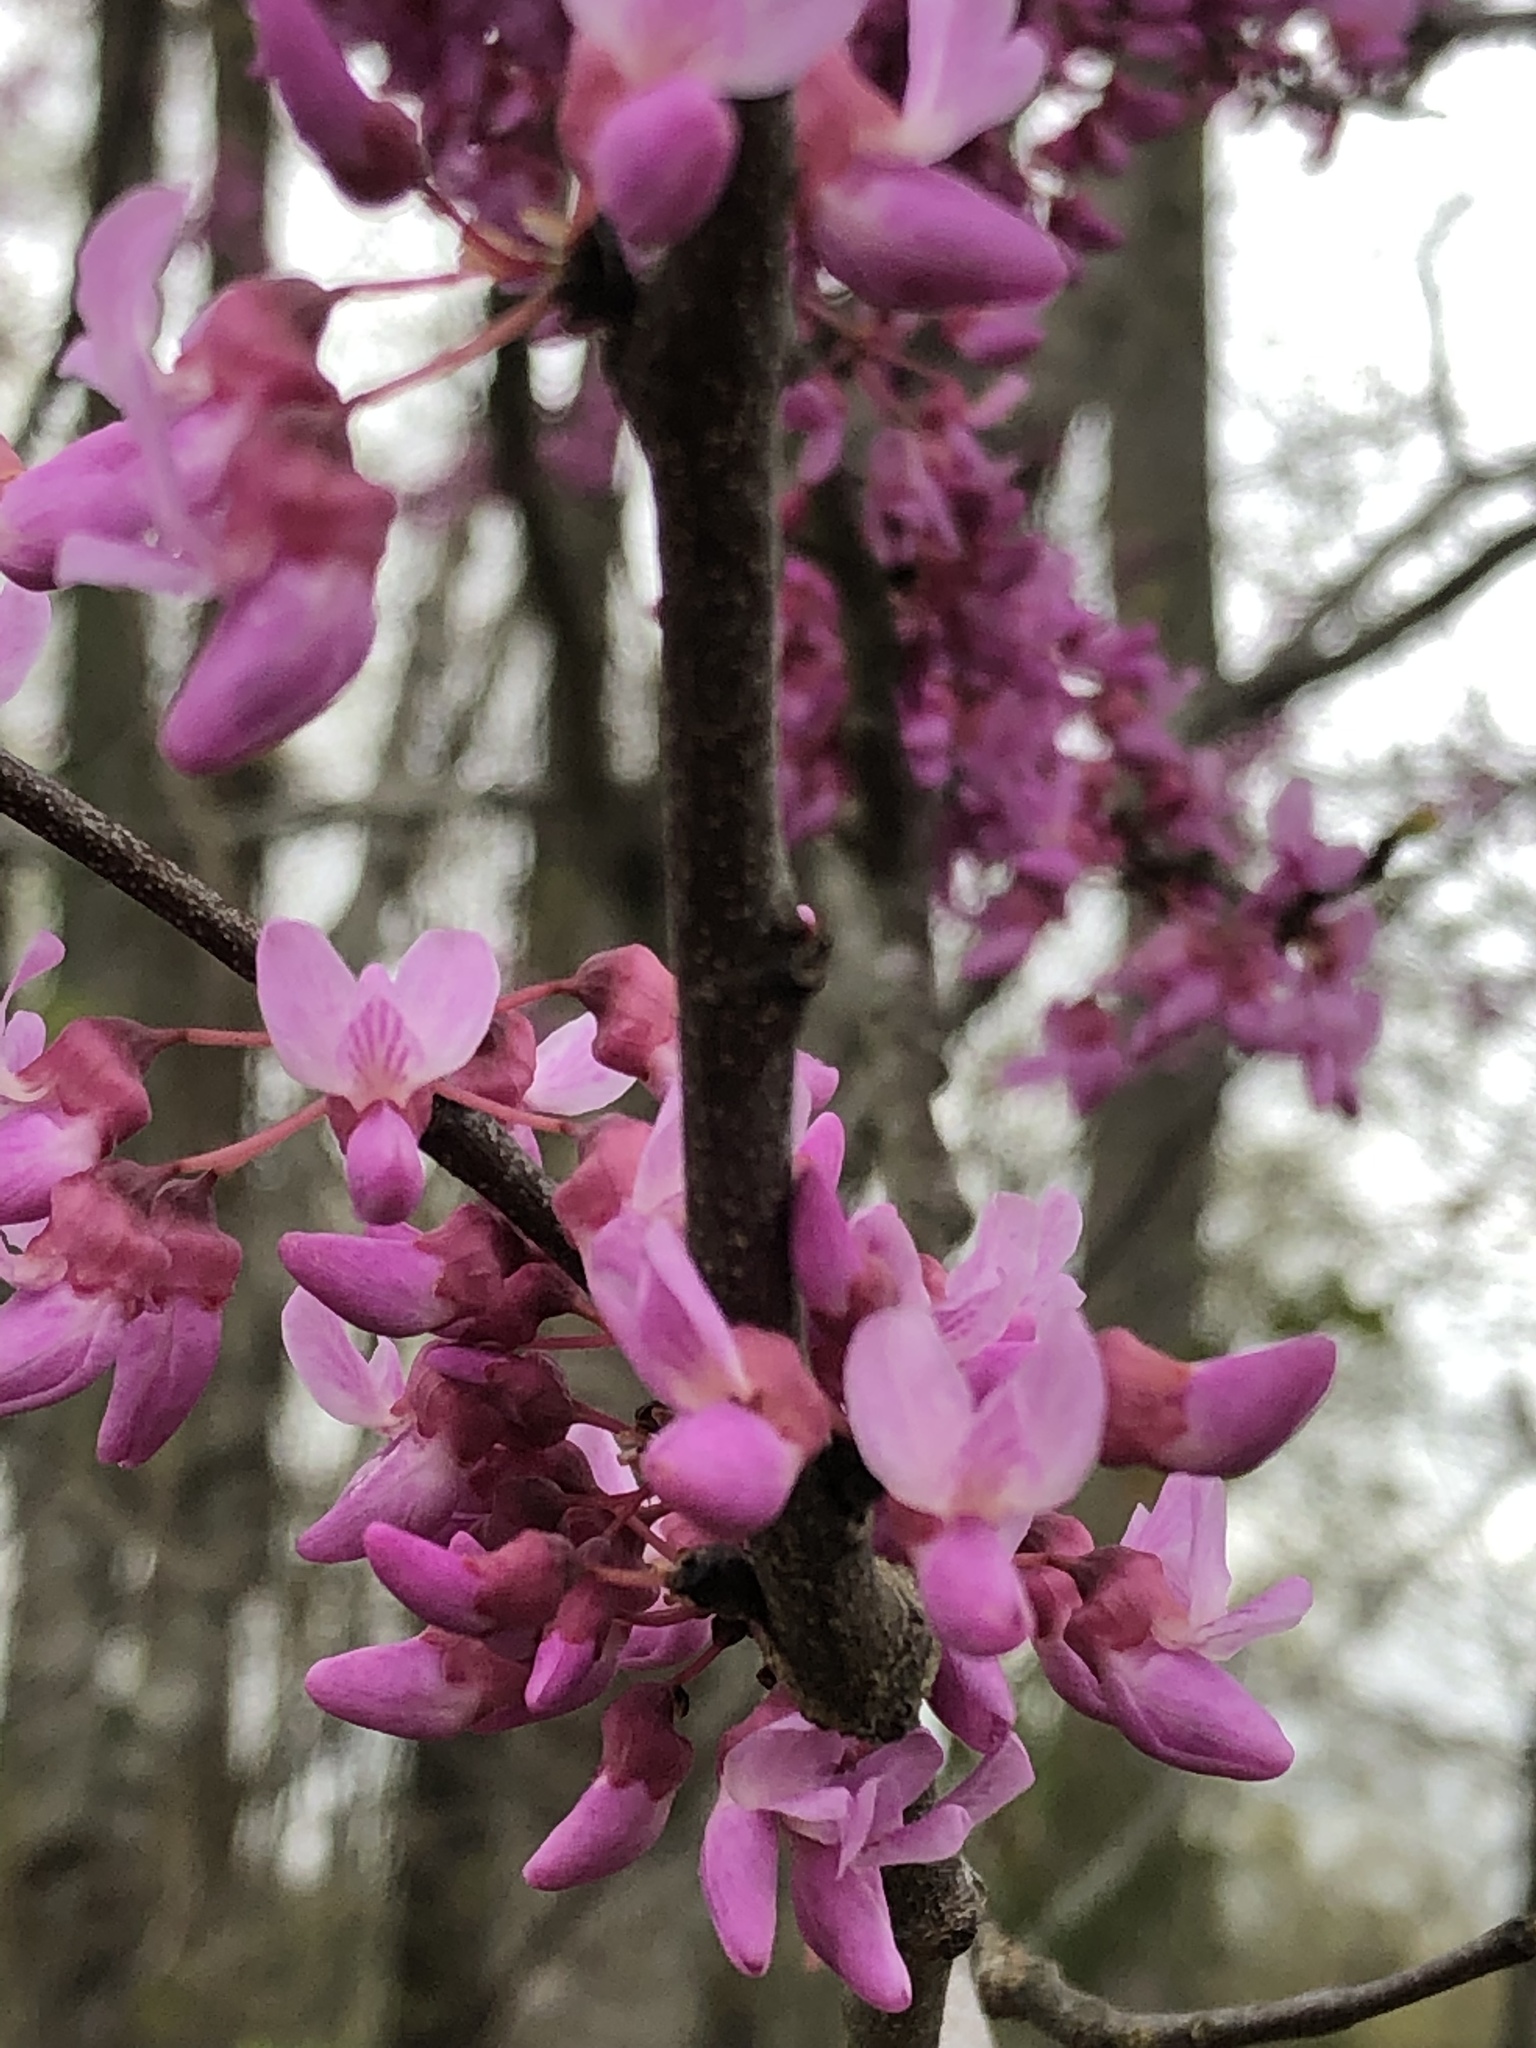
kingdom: Plantae
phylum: Tracheophyta
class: Magnoliopsida
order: Fabales
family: Fabaceae
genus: Cercis
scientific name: Cercis canadensis
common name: Eastern redbud
